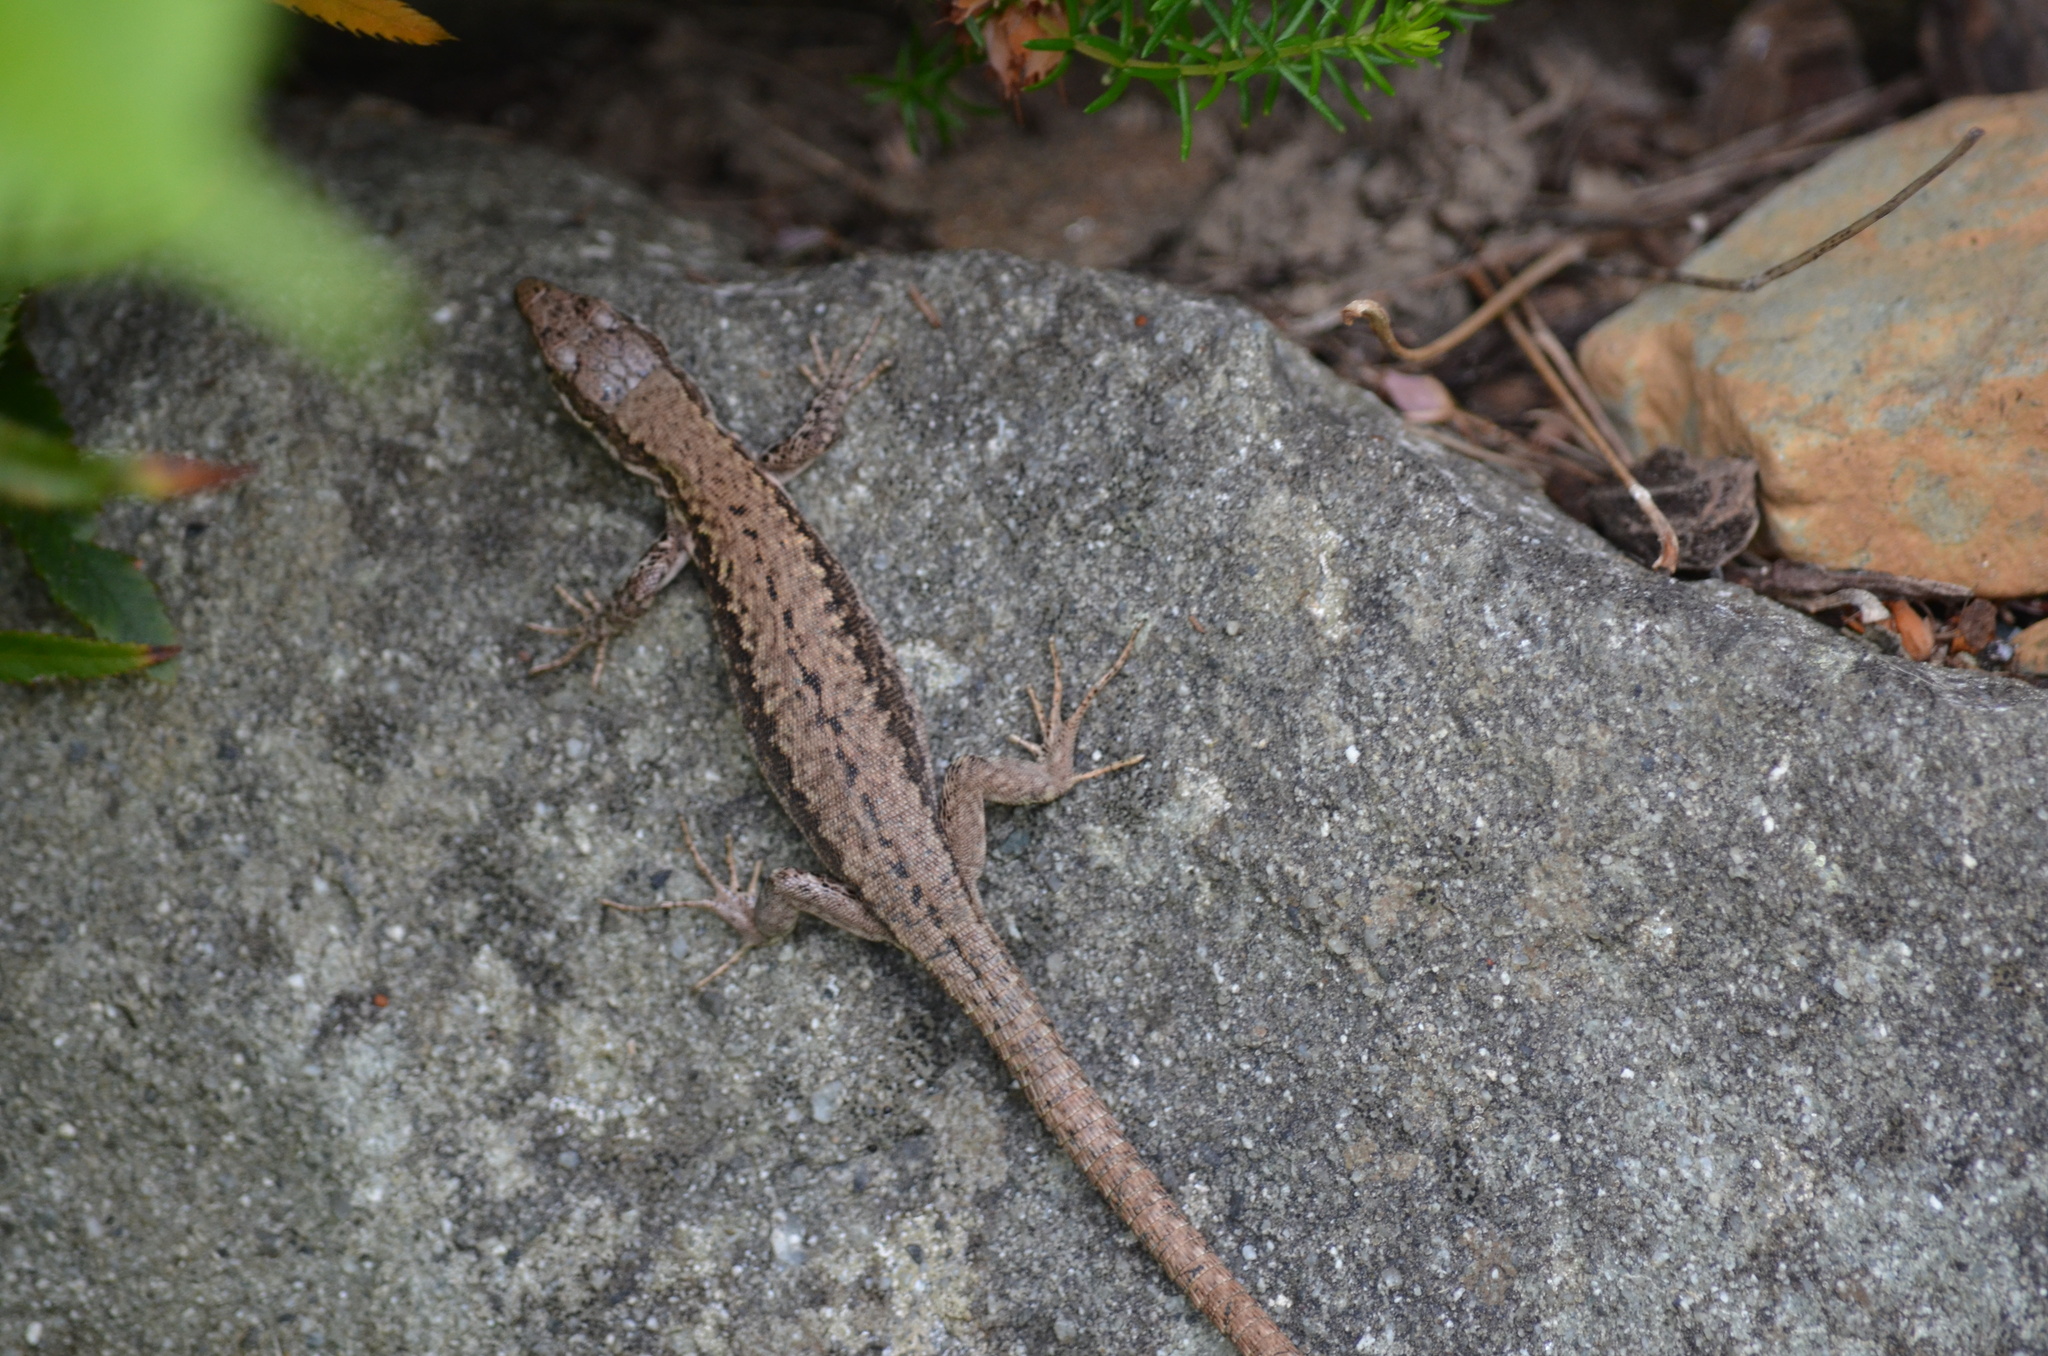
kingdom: Animalia
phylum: Chordata
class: Squamata
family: Lacertidae
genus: Podarcis
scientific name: Podarcis muralis
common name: Common wall lizard
